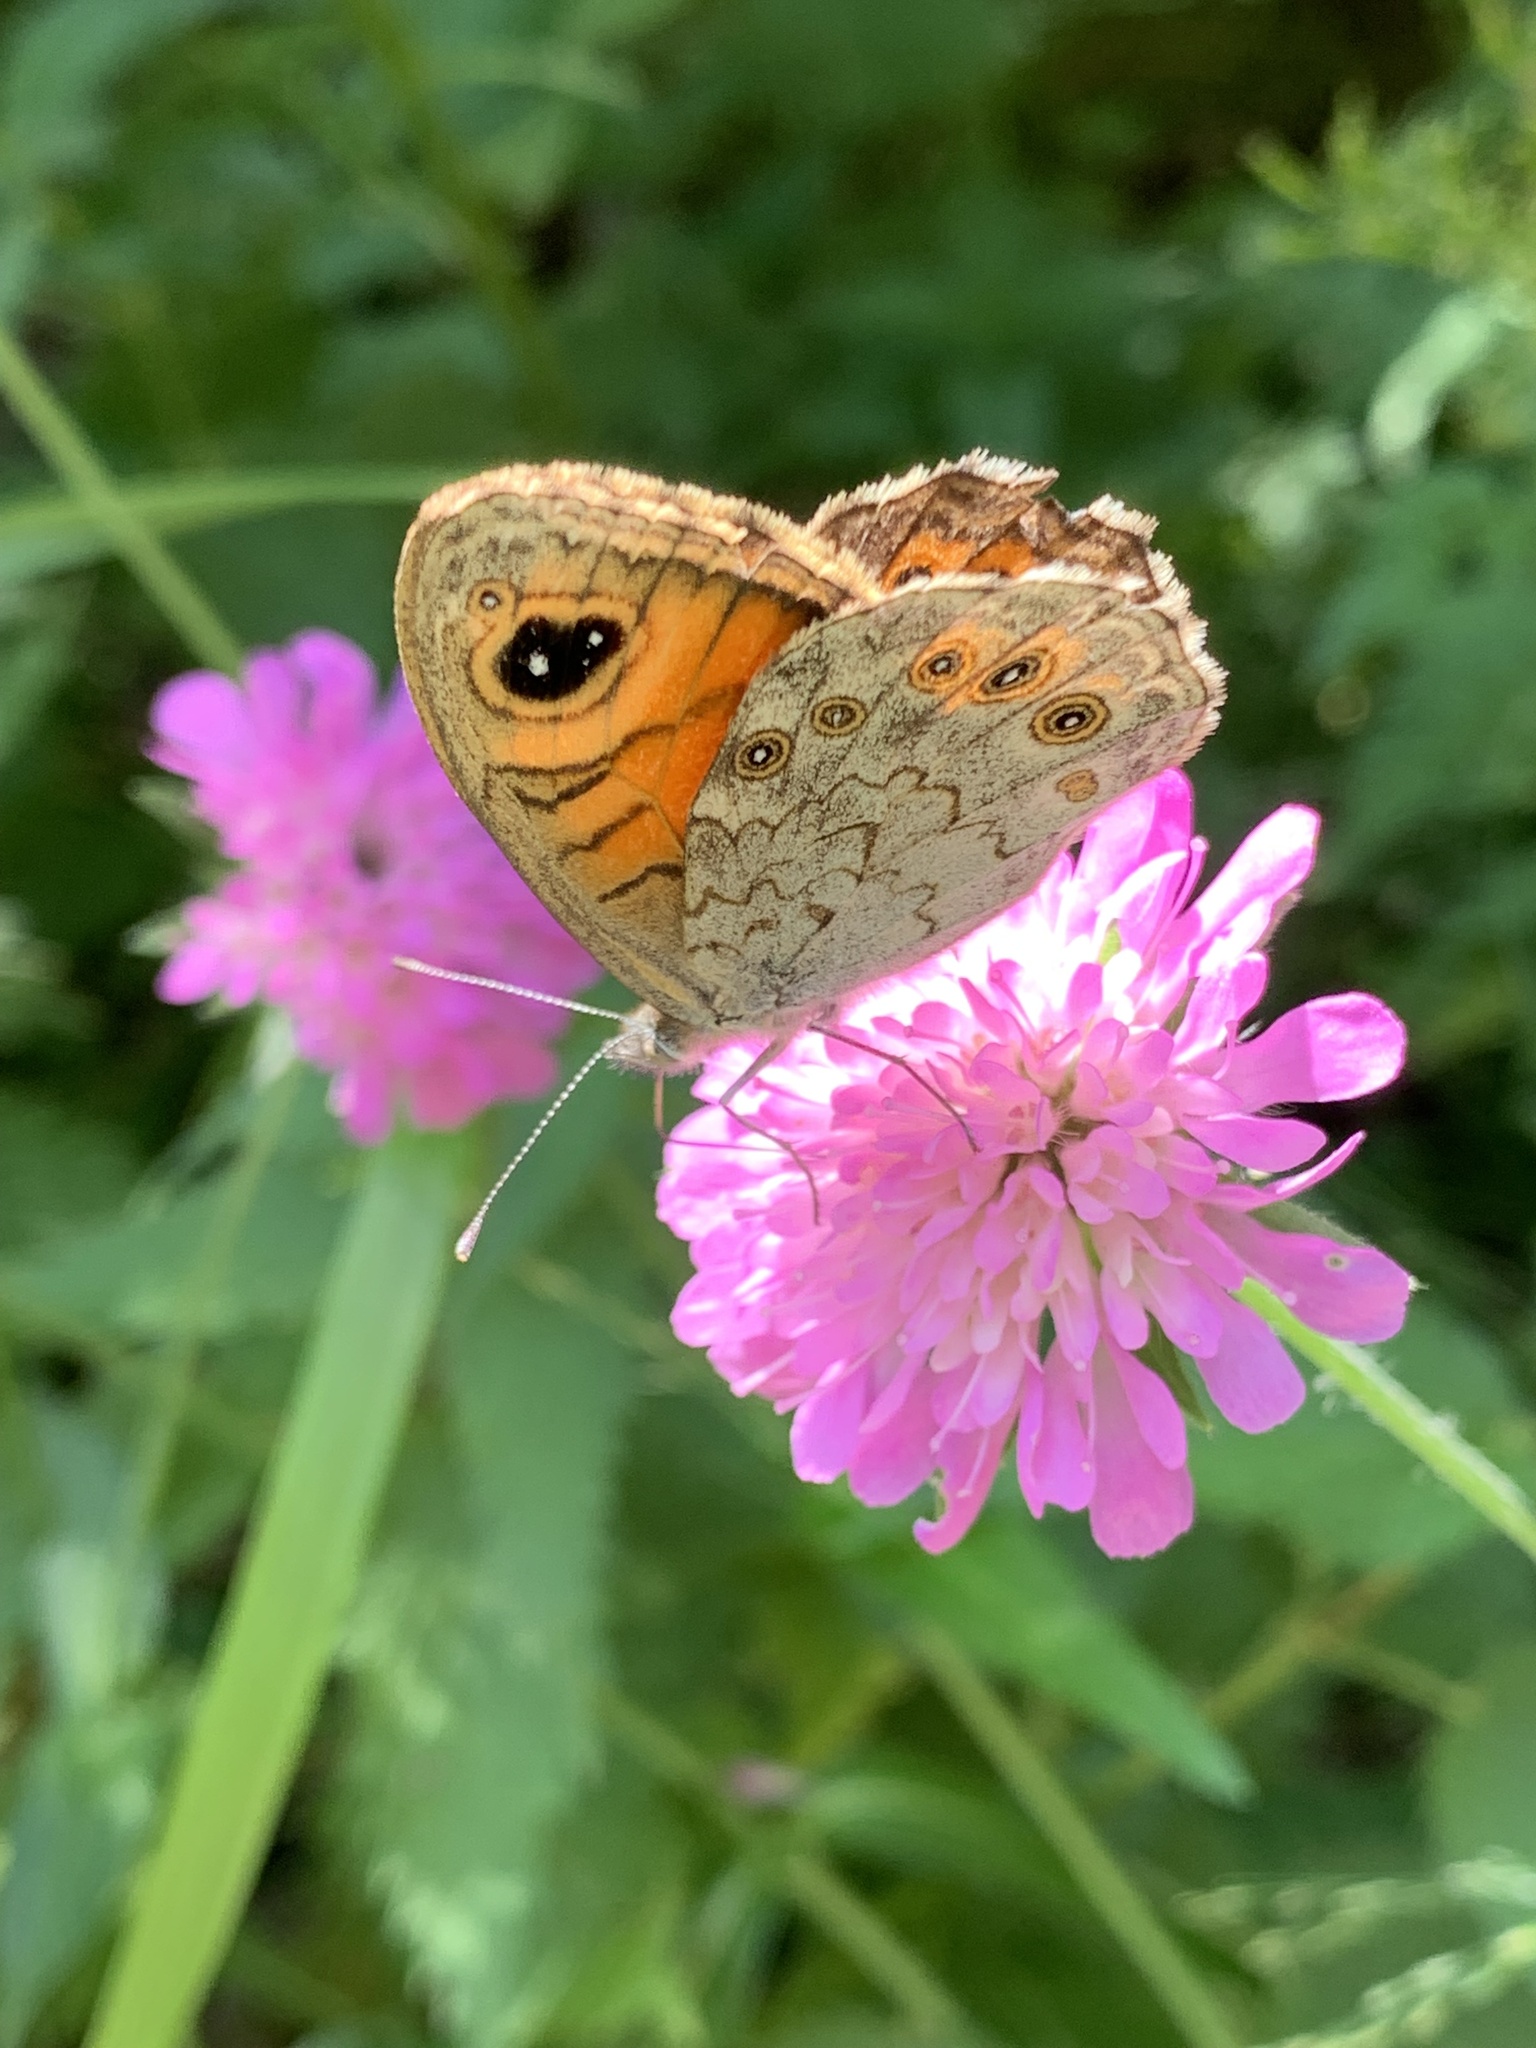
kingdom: Animalia
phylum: Arthropoda
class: Insecta
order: Lepidoptera
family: Nymphalidae
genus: Pararge
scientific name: Pararge Lasiommata maera
